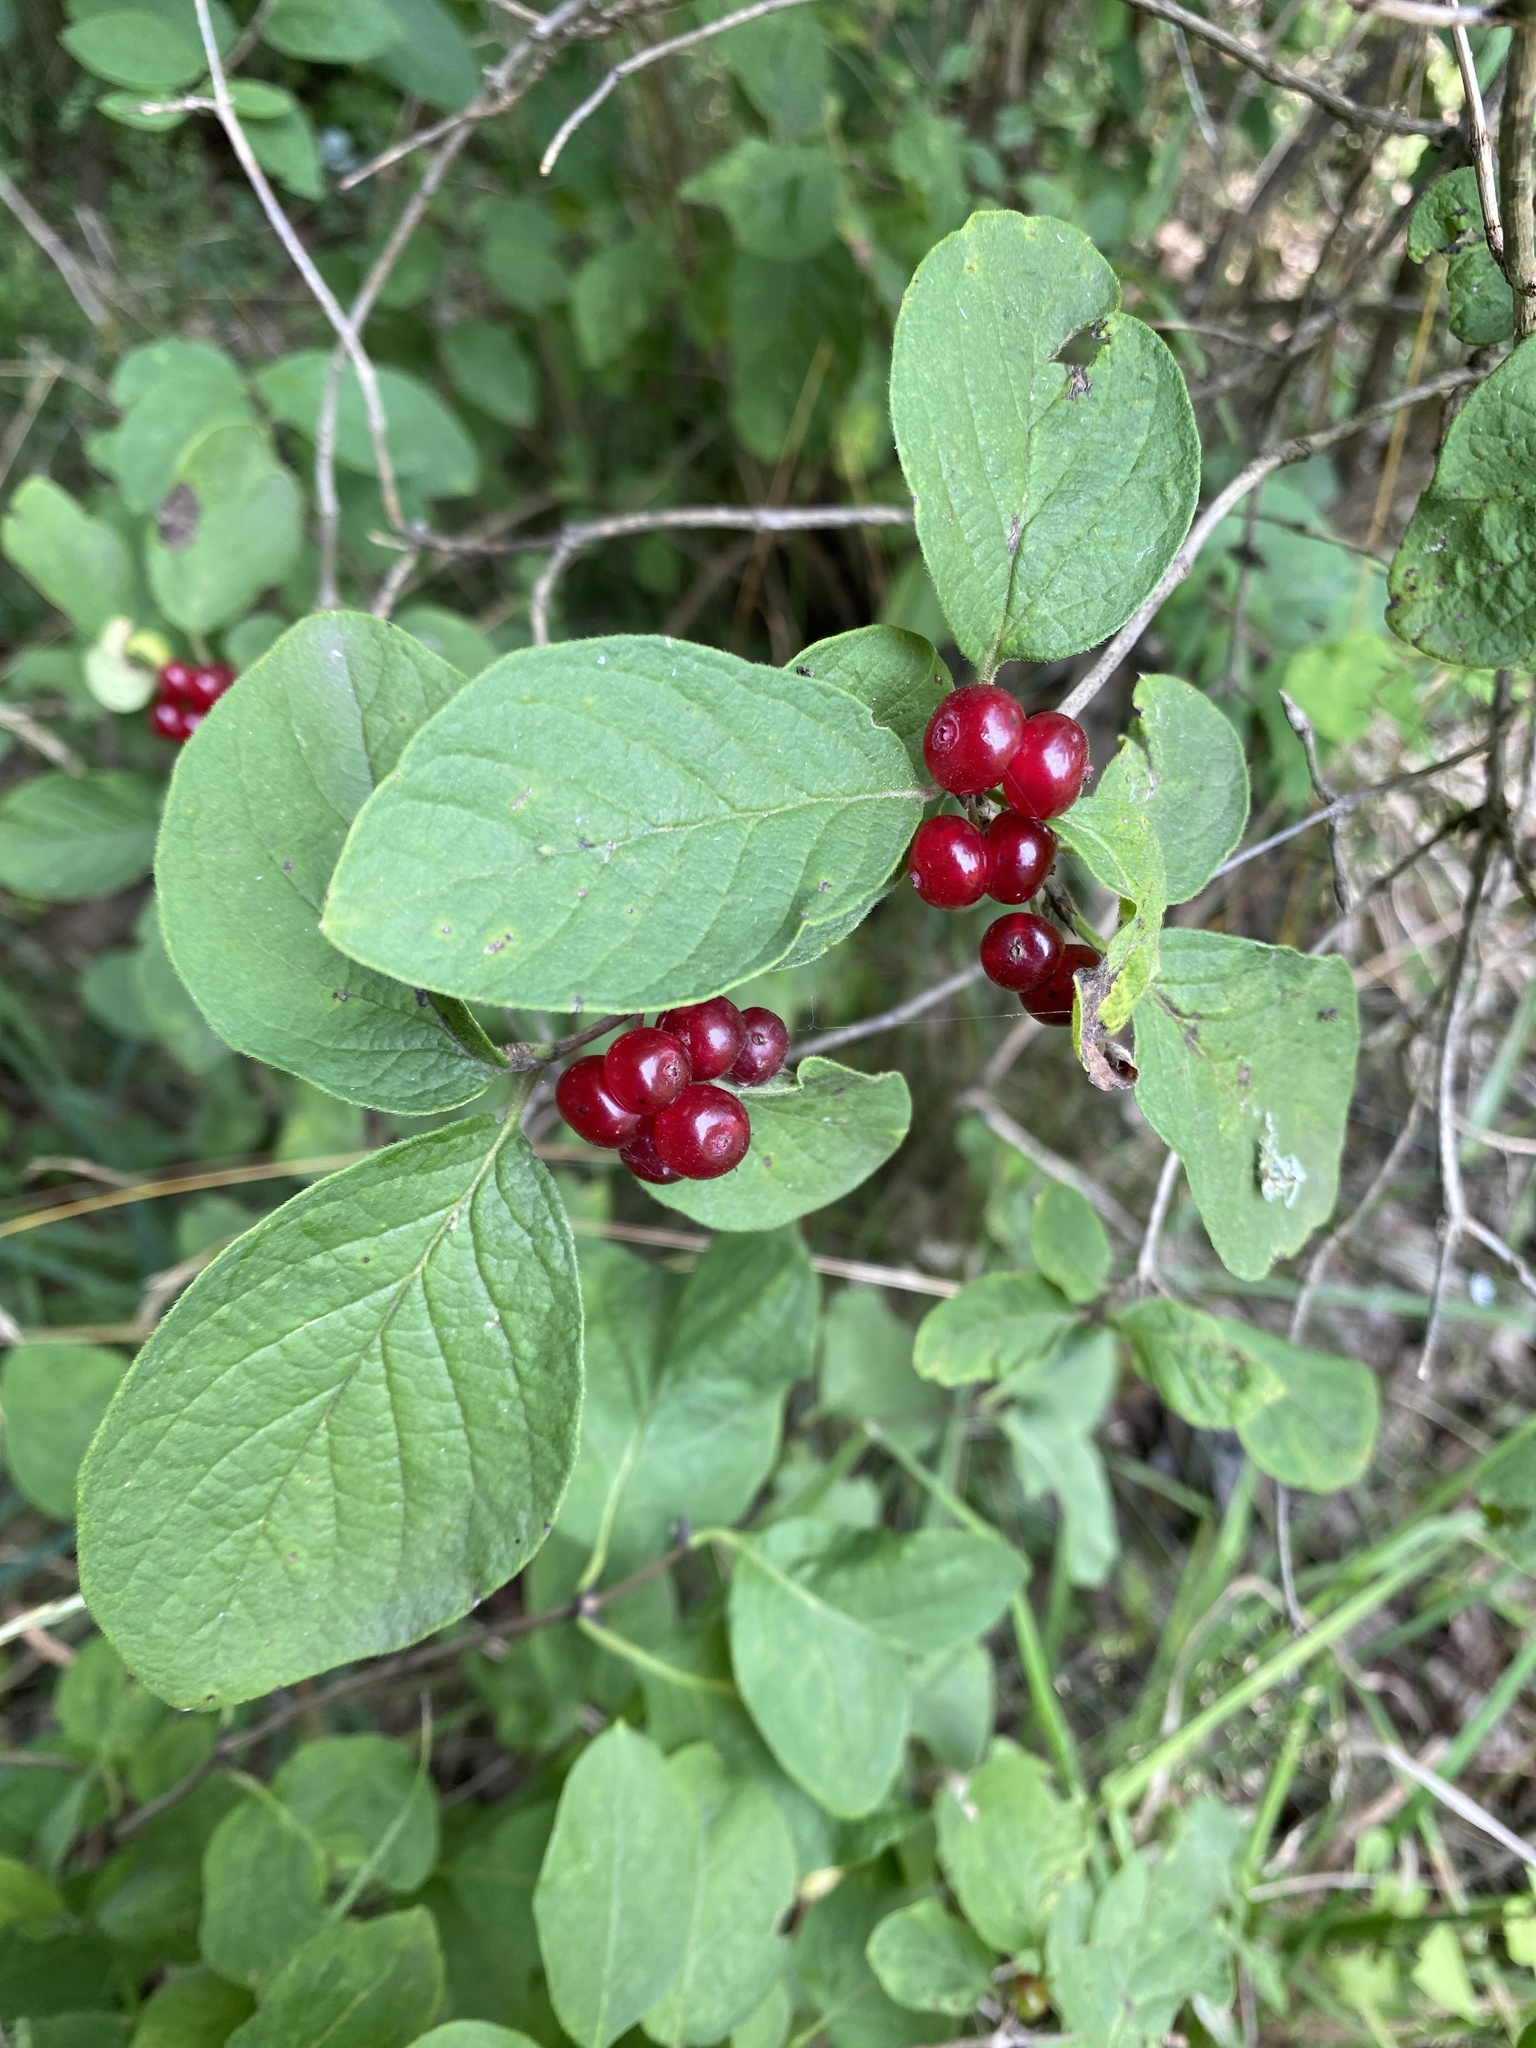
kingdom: Plantae
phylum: Tracheophyta
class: Magnoliopsida
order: Dipsacales
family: Caprifoliaceae
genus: Lonicera
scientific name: Lonicera xylosteum
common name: Fly honeysuckle
